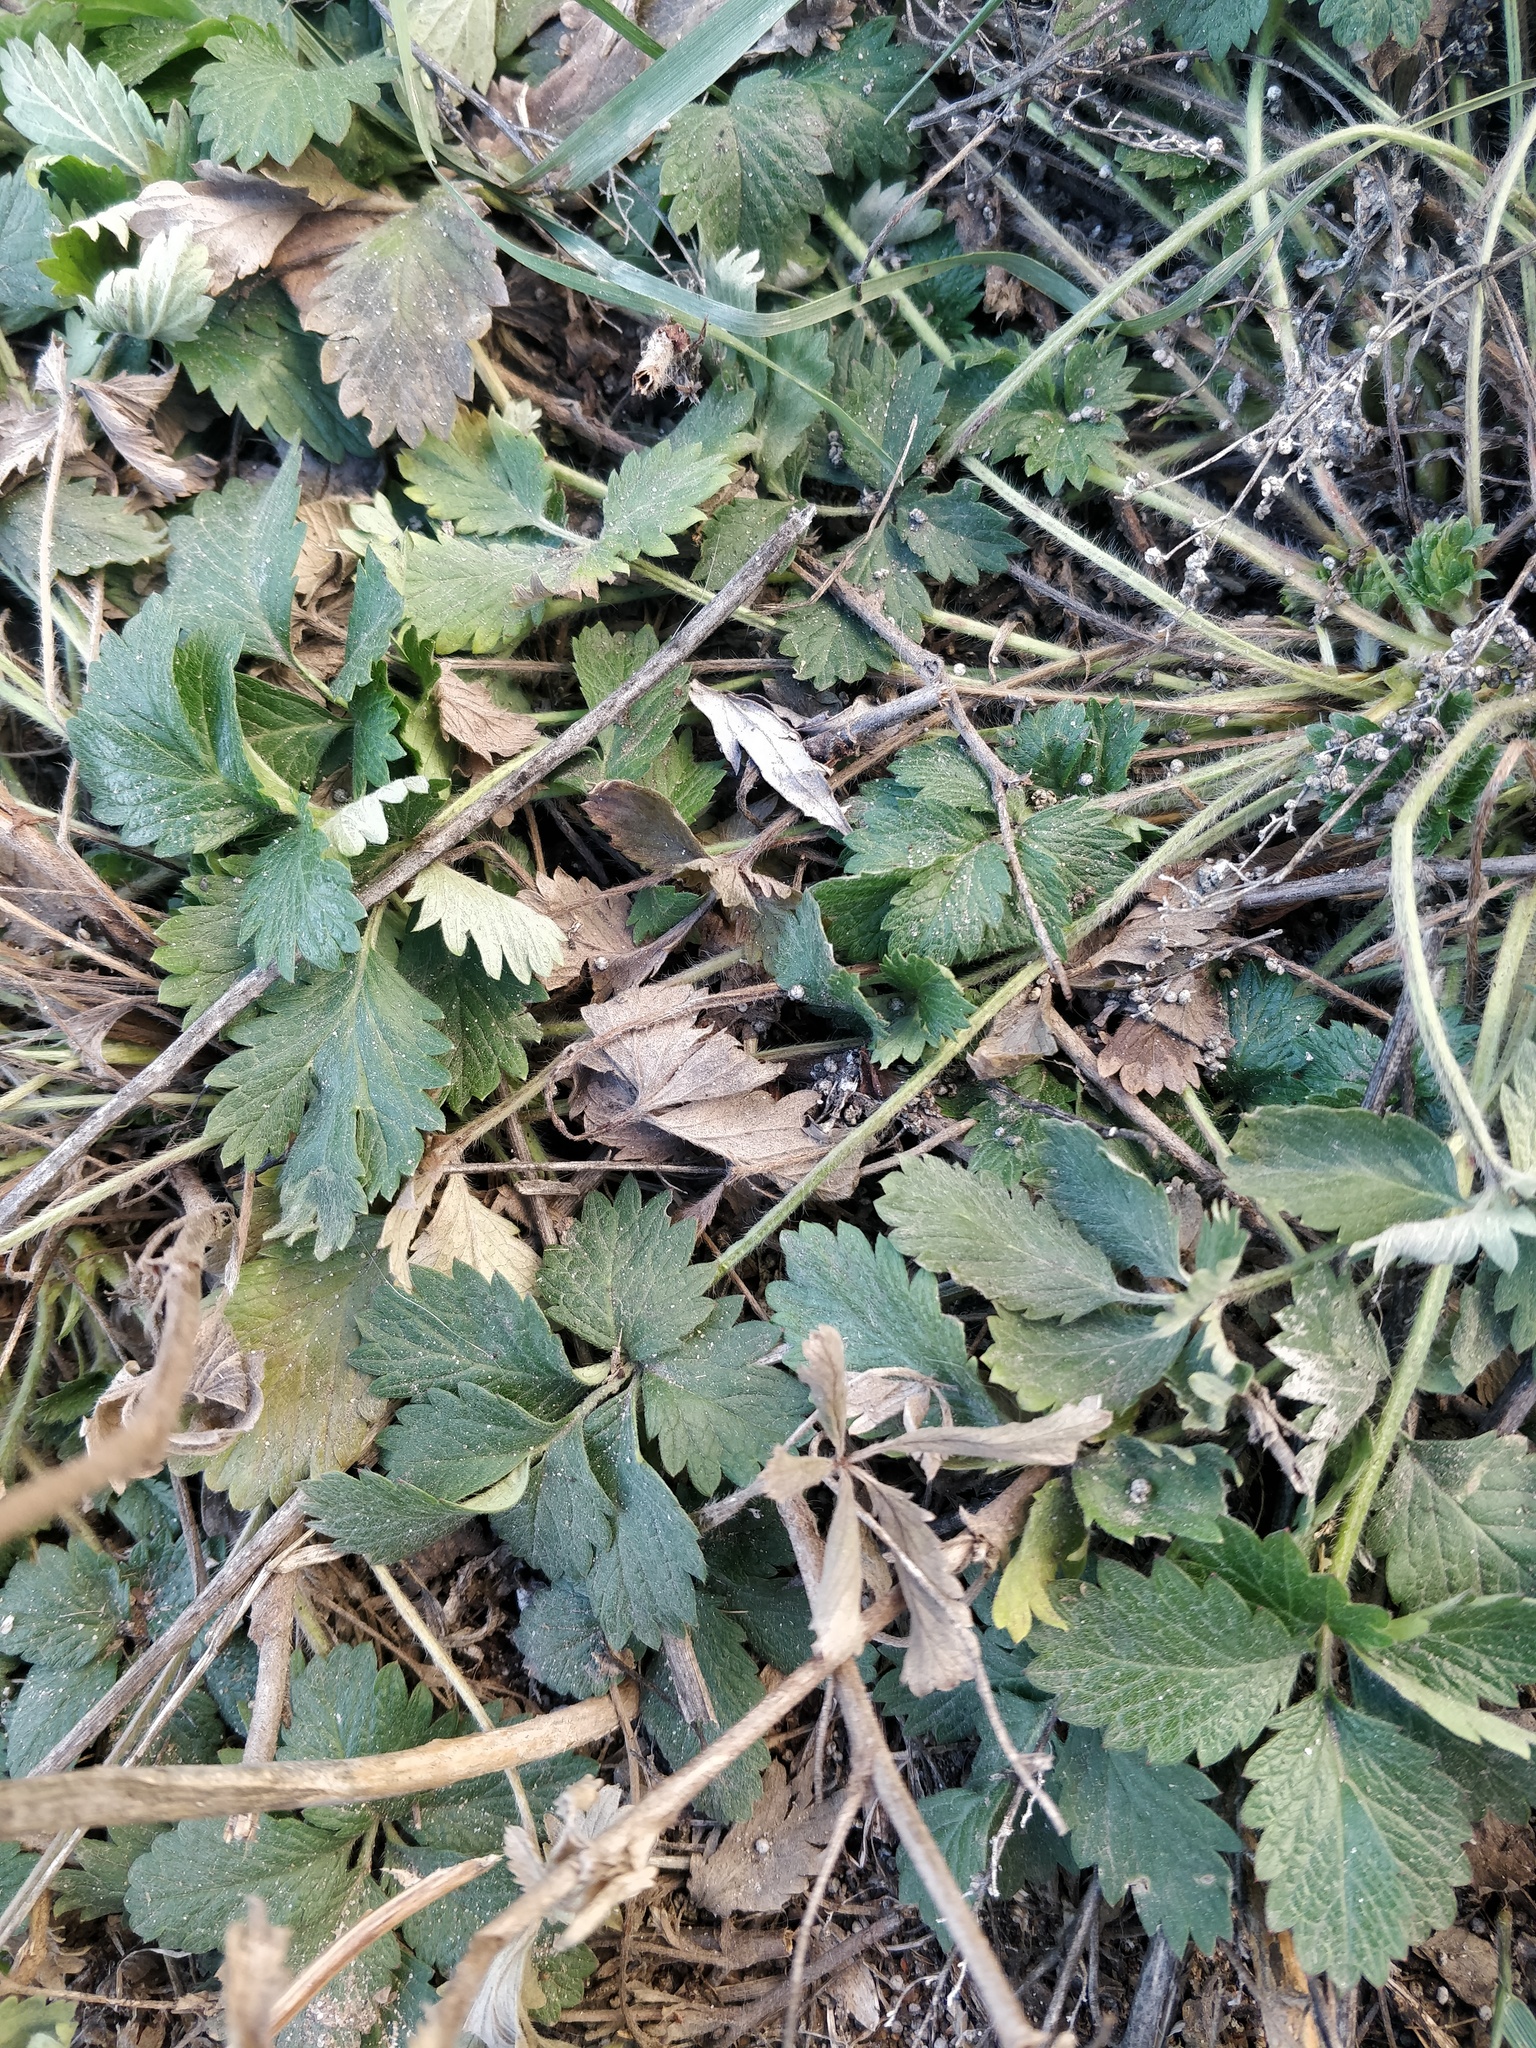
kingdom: Plantae
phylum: Tracheophyta
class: Magnoliopsida
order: Rosales
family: Rosaceae
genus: Potentilla
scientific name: Potentilla intermedia
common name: Downy cinquefoil
